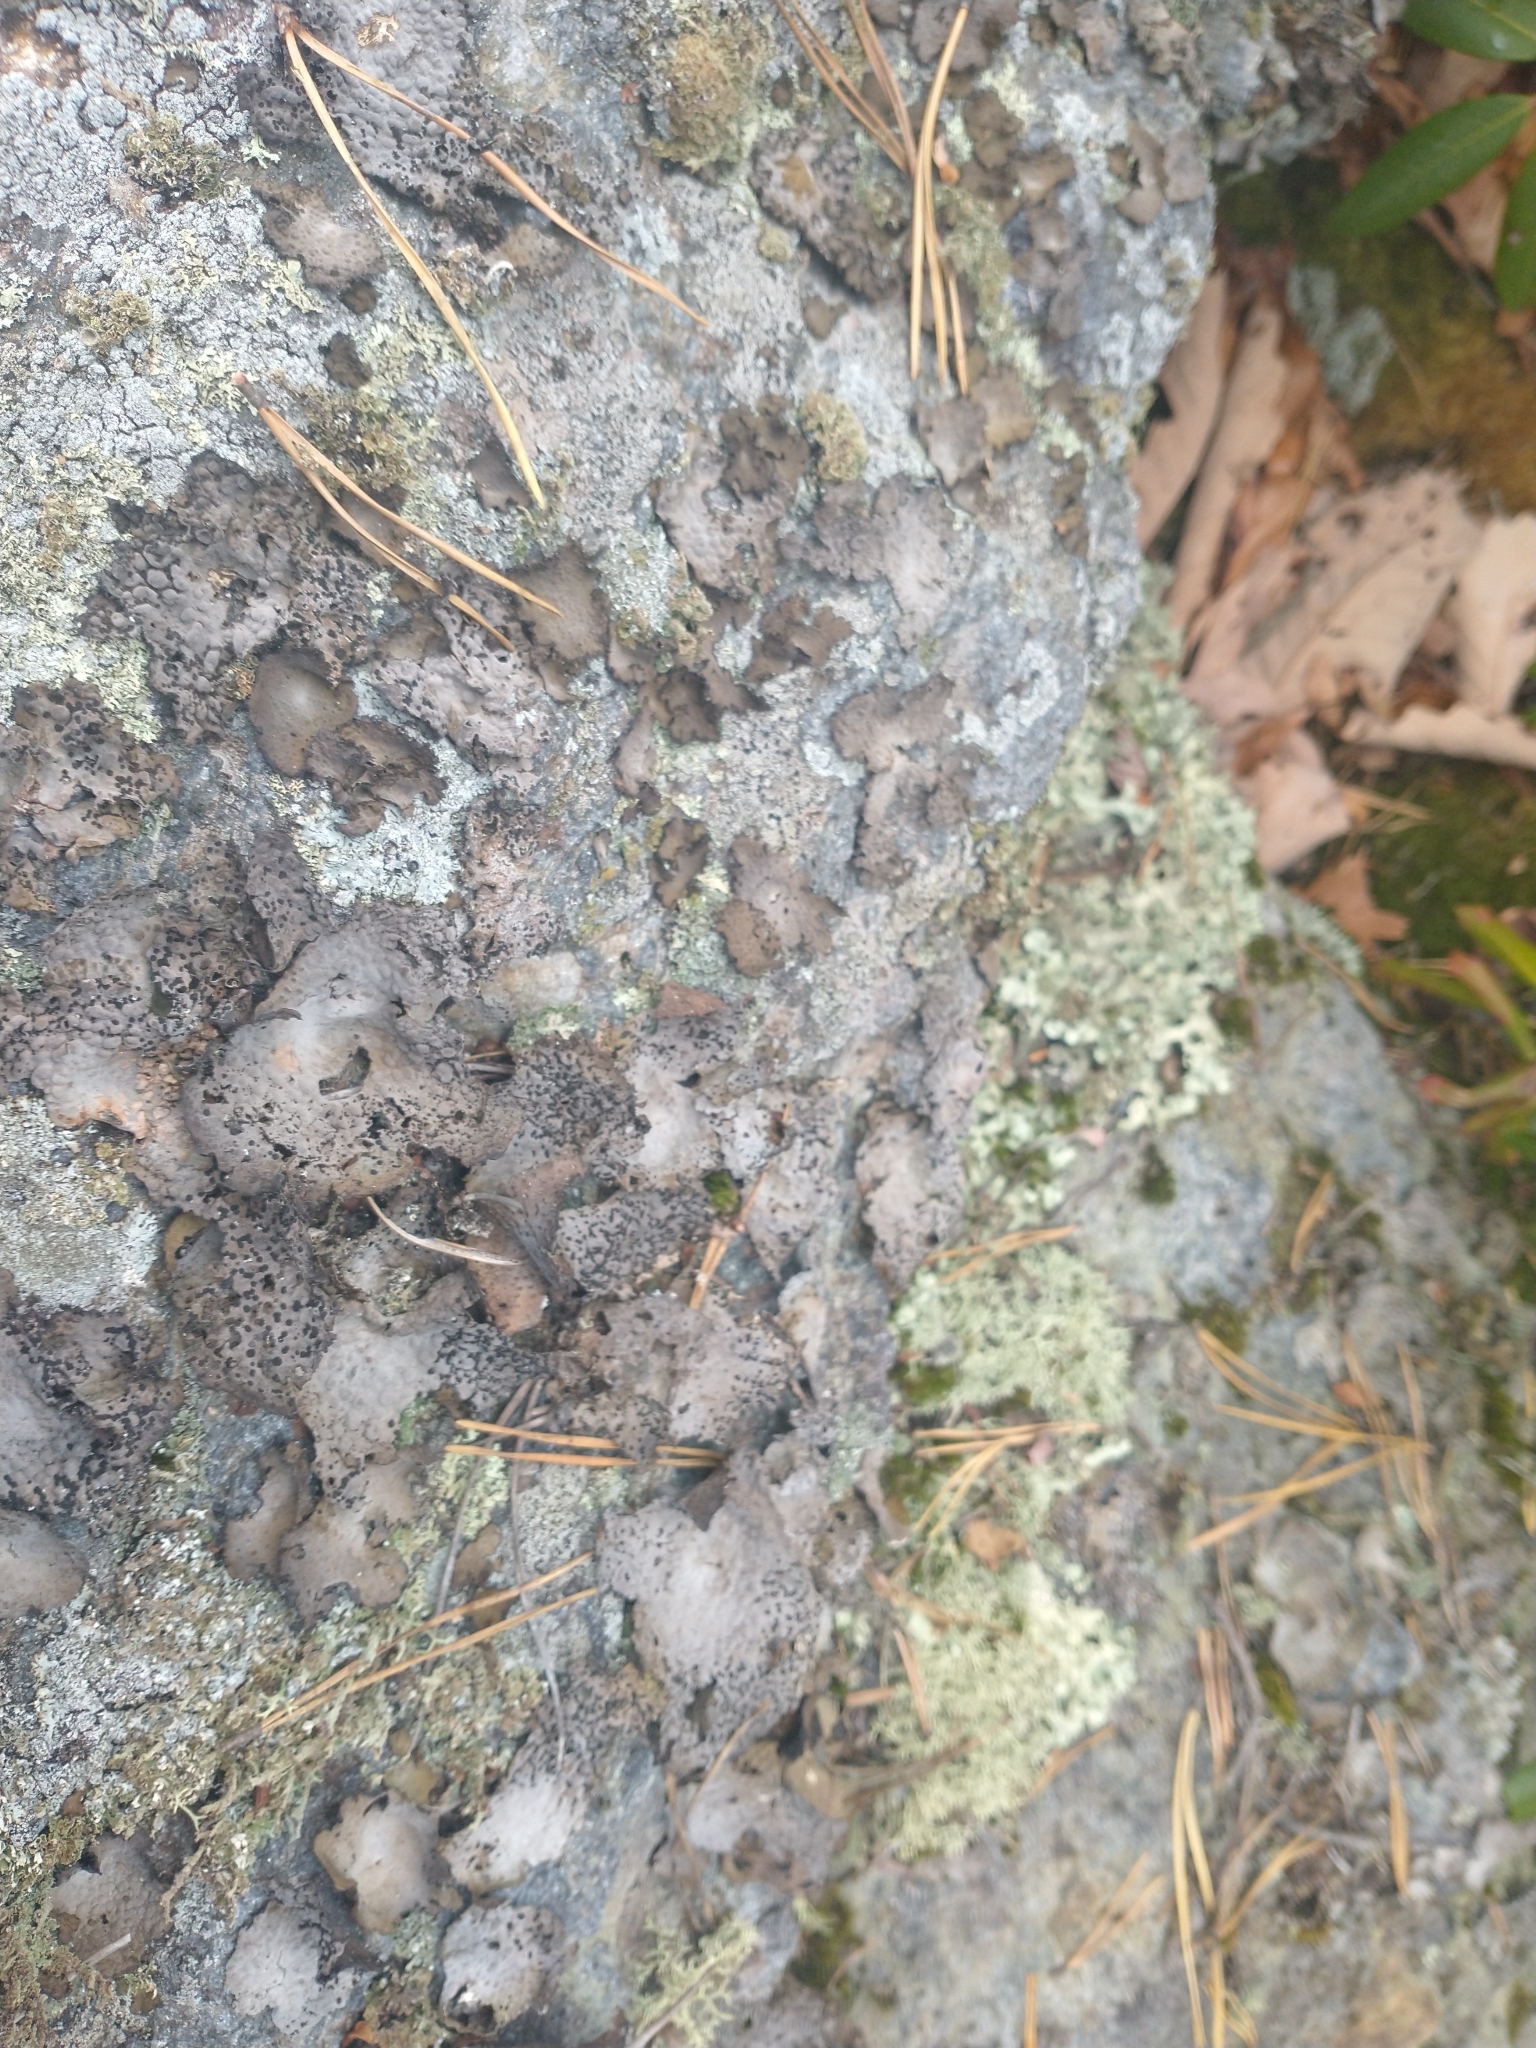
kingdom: Fungi
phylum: Ascomycota
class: Lecanoromycetes
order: Umbilicariales
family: Umbilicariaceae
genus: Lasallia
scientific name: Lasallia papulosa
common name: Common toadskin lichen
